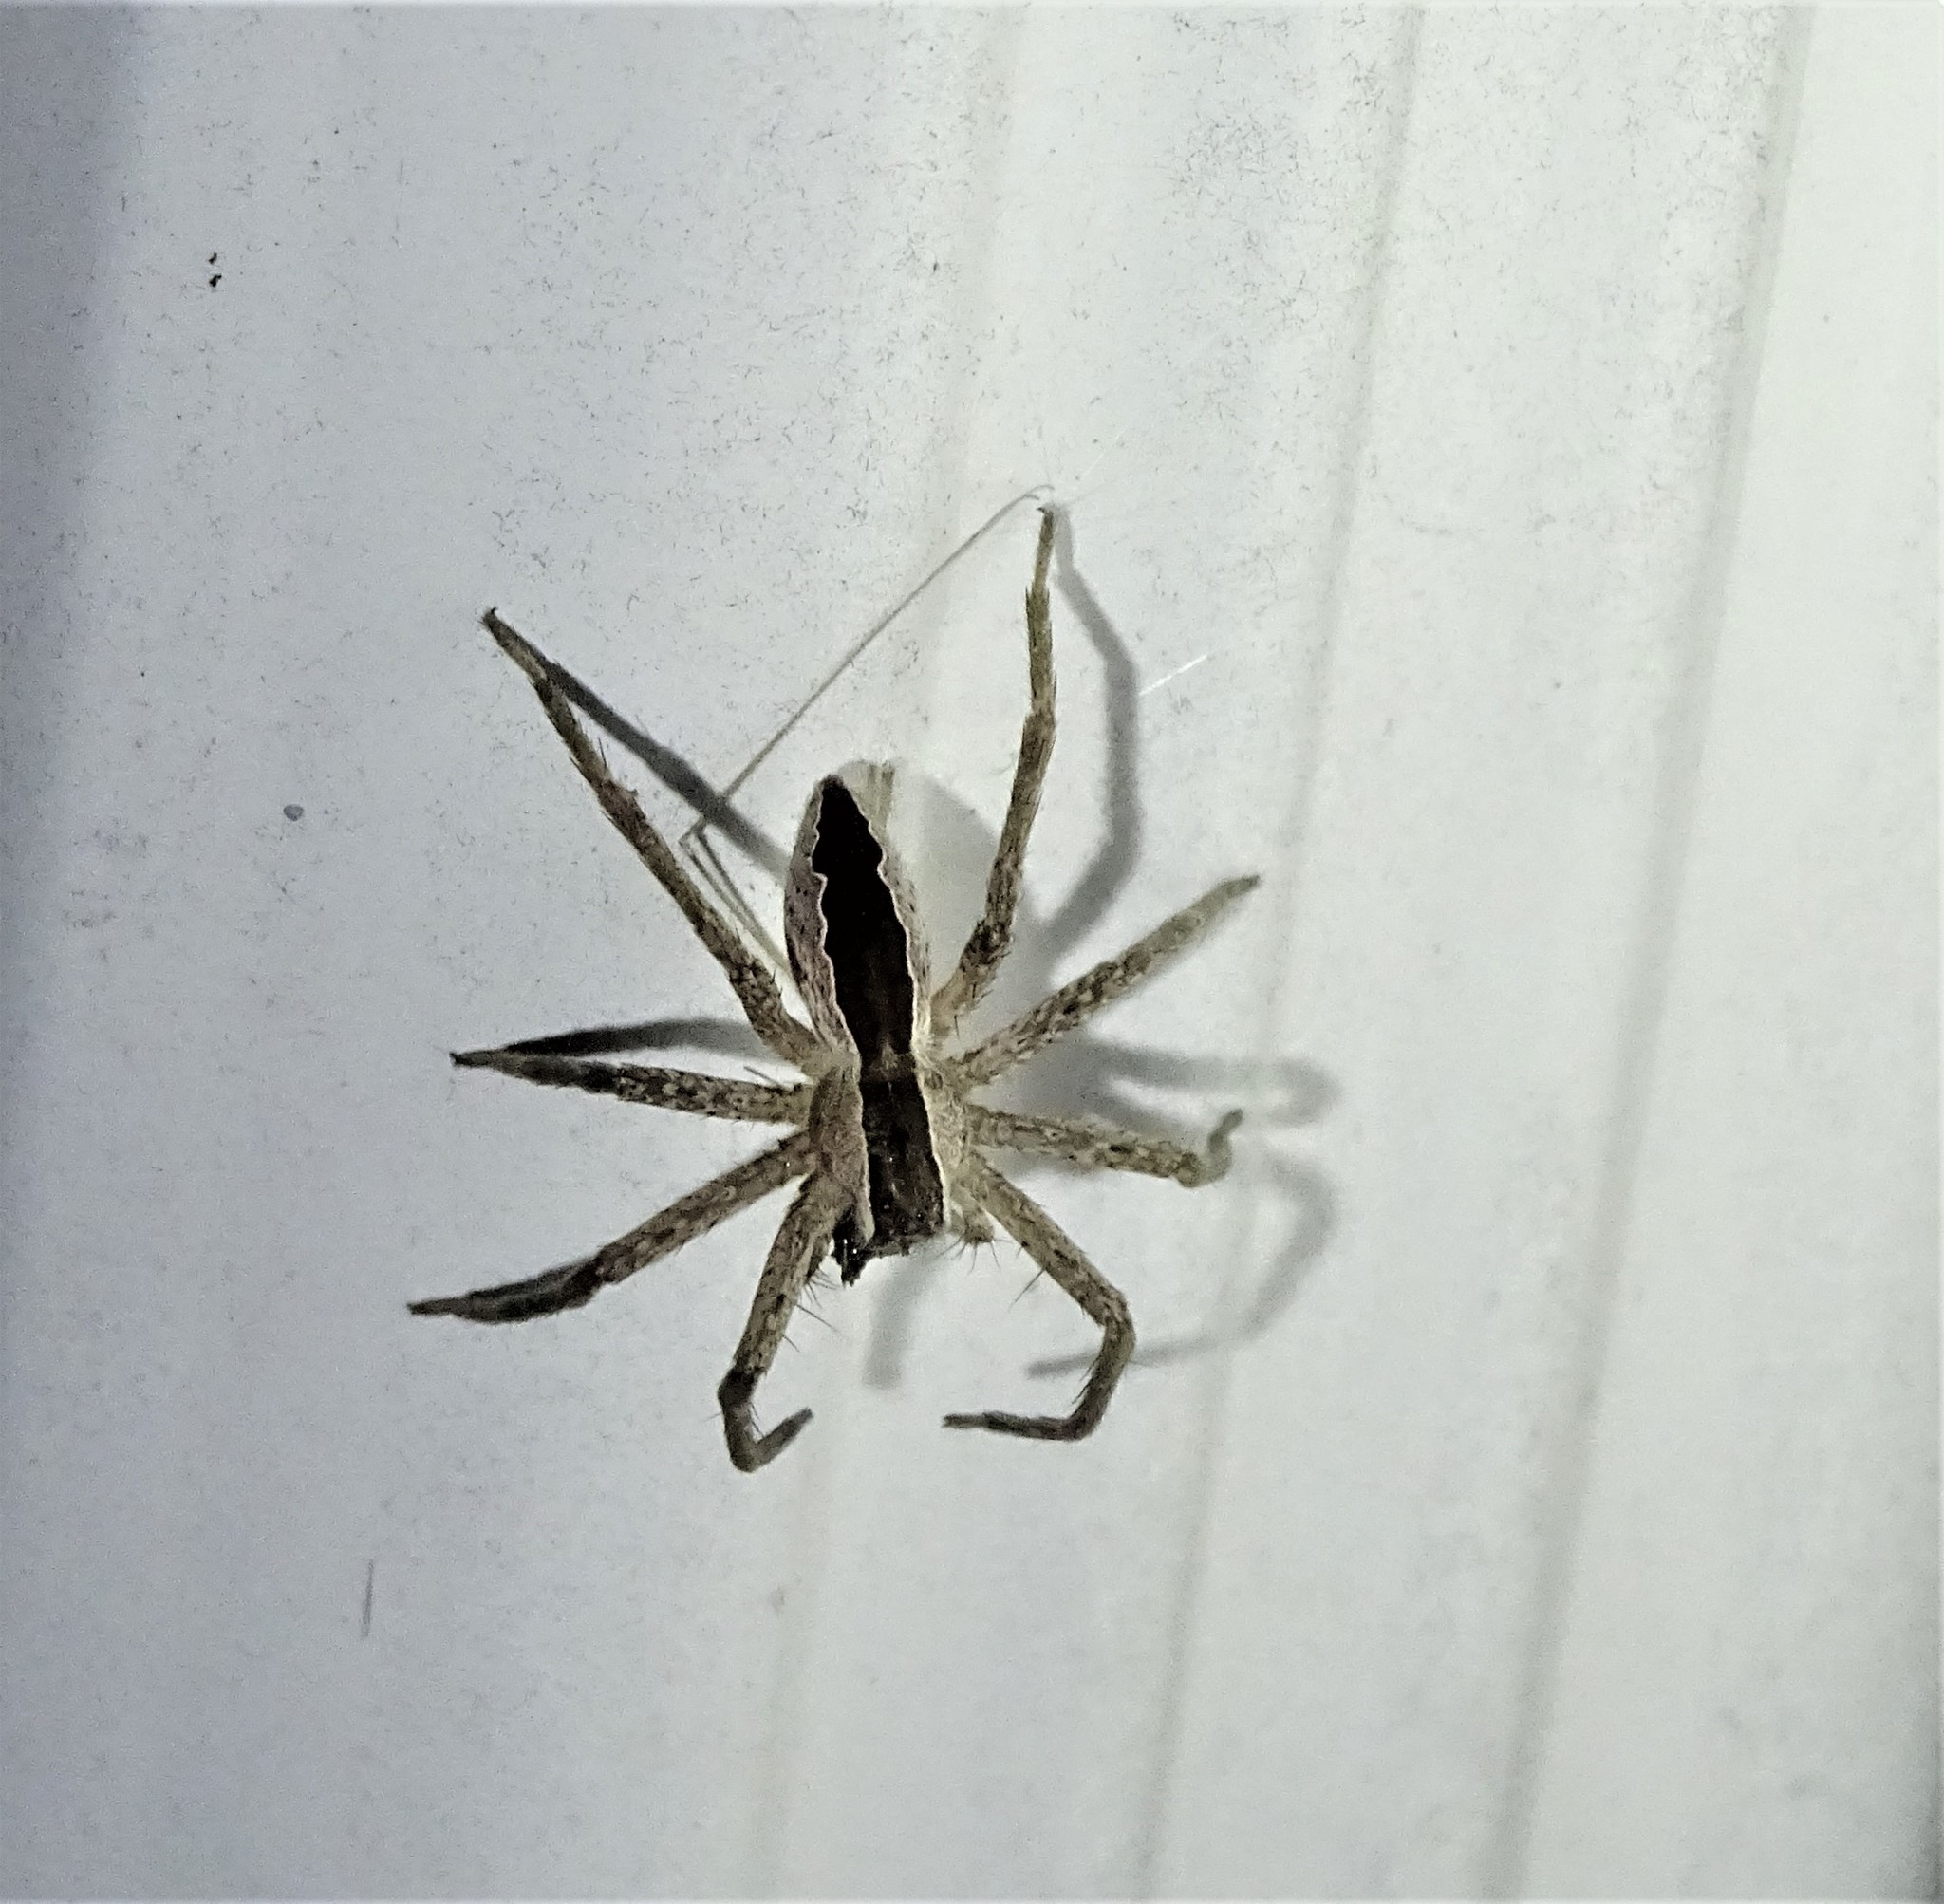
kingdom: Animalia
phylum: Arthropoda
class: Arachnida
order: Araneae
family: Pisauridae
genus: Pisaurina
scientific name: Pisaurina mira
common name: American nursery web spider
